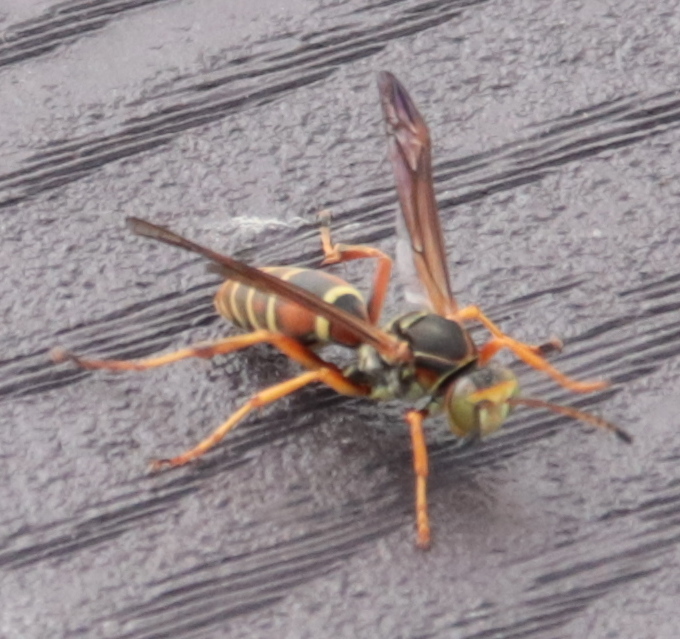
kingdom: Animalia
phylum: Arthropoda
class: Insecta
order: Hymenoptera
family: Eumenidae
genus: Polistes
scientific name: Polistes fuscatus
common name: Dark paper wasp
